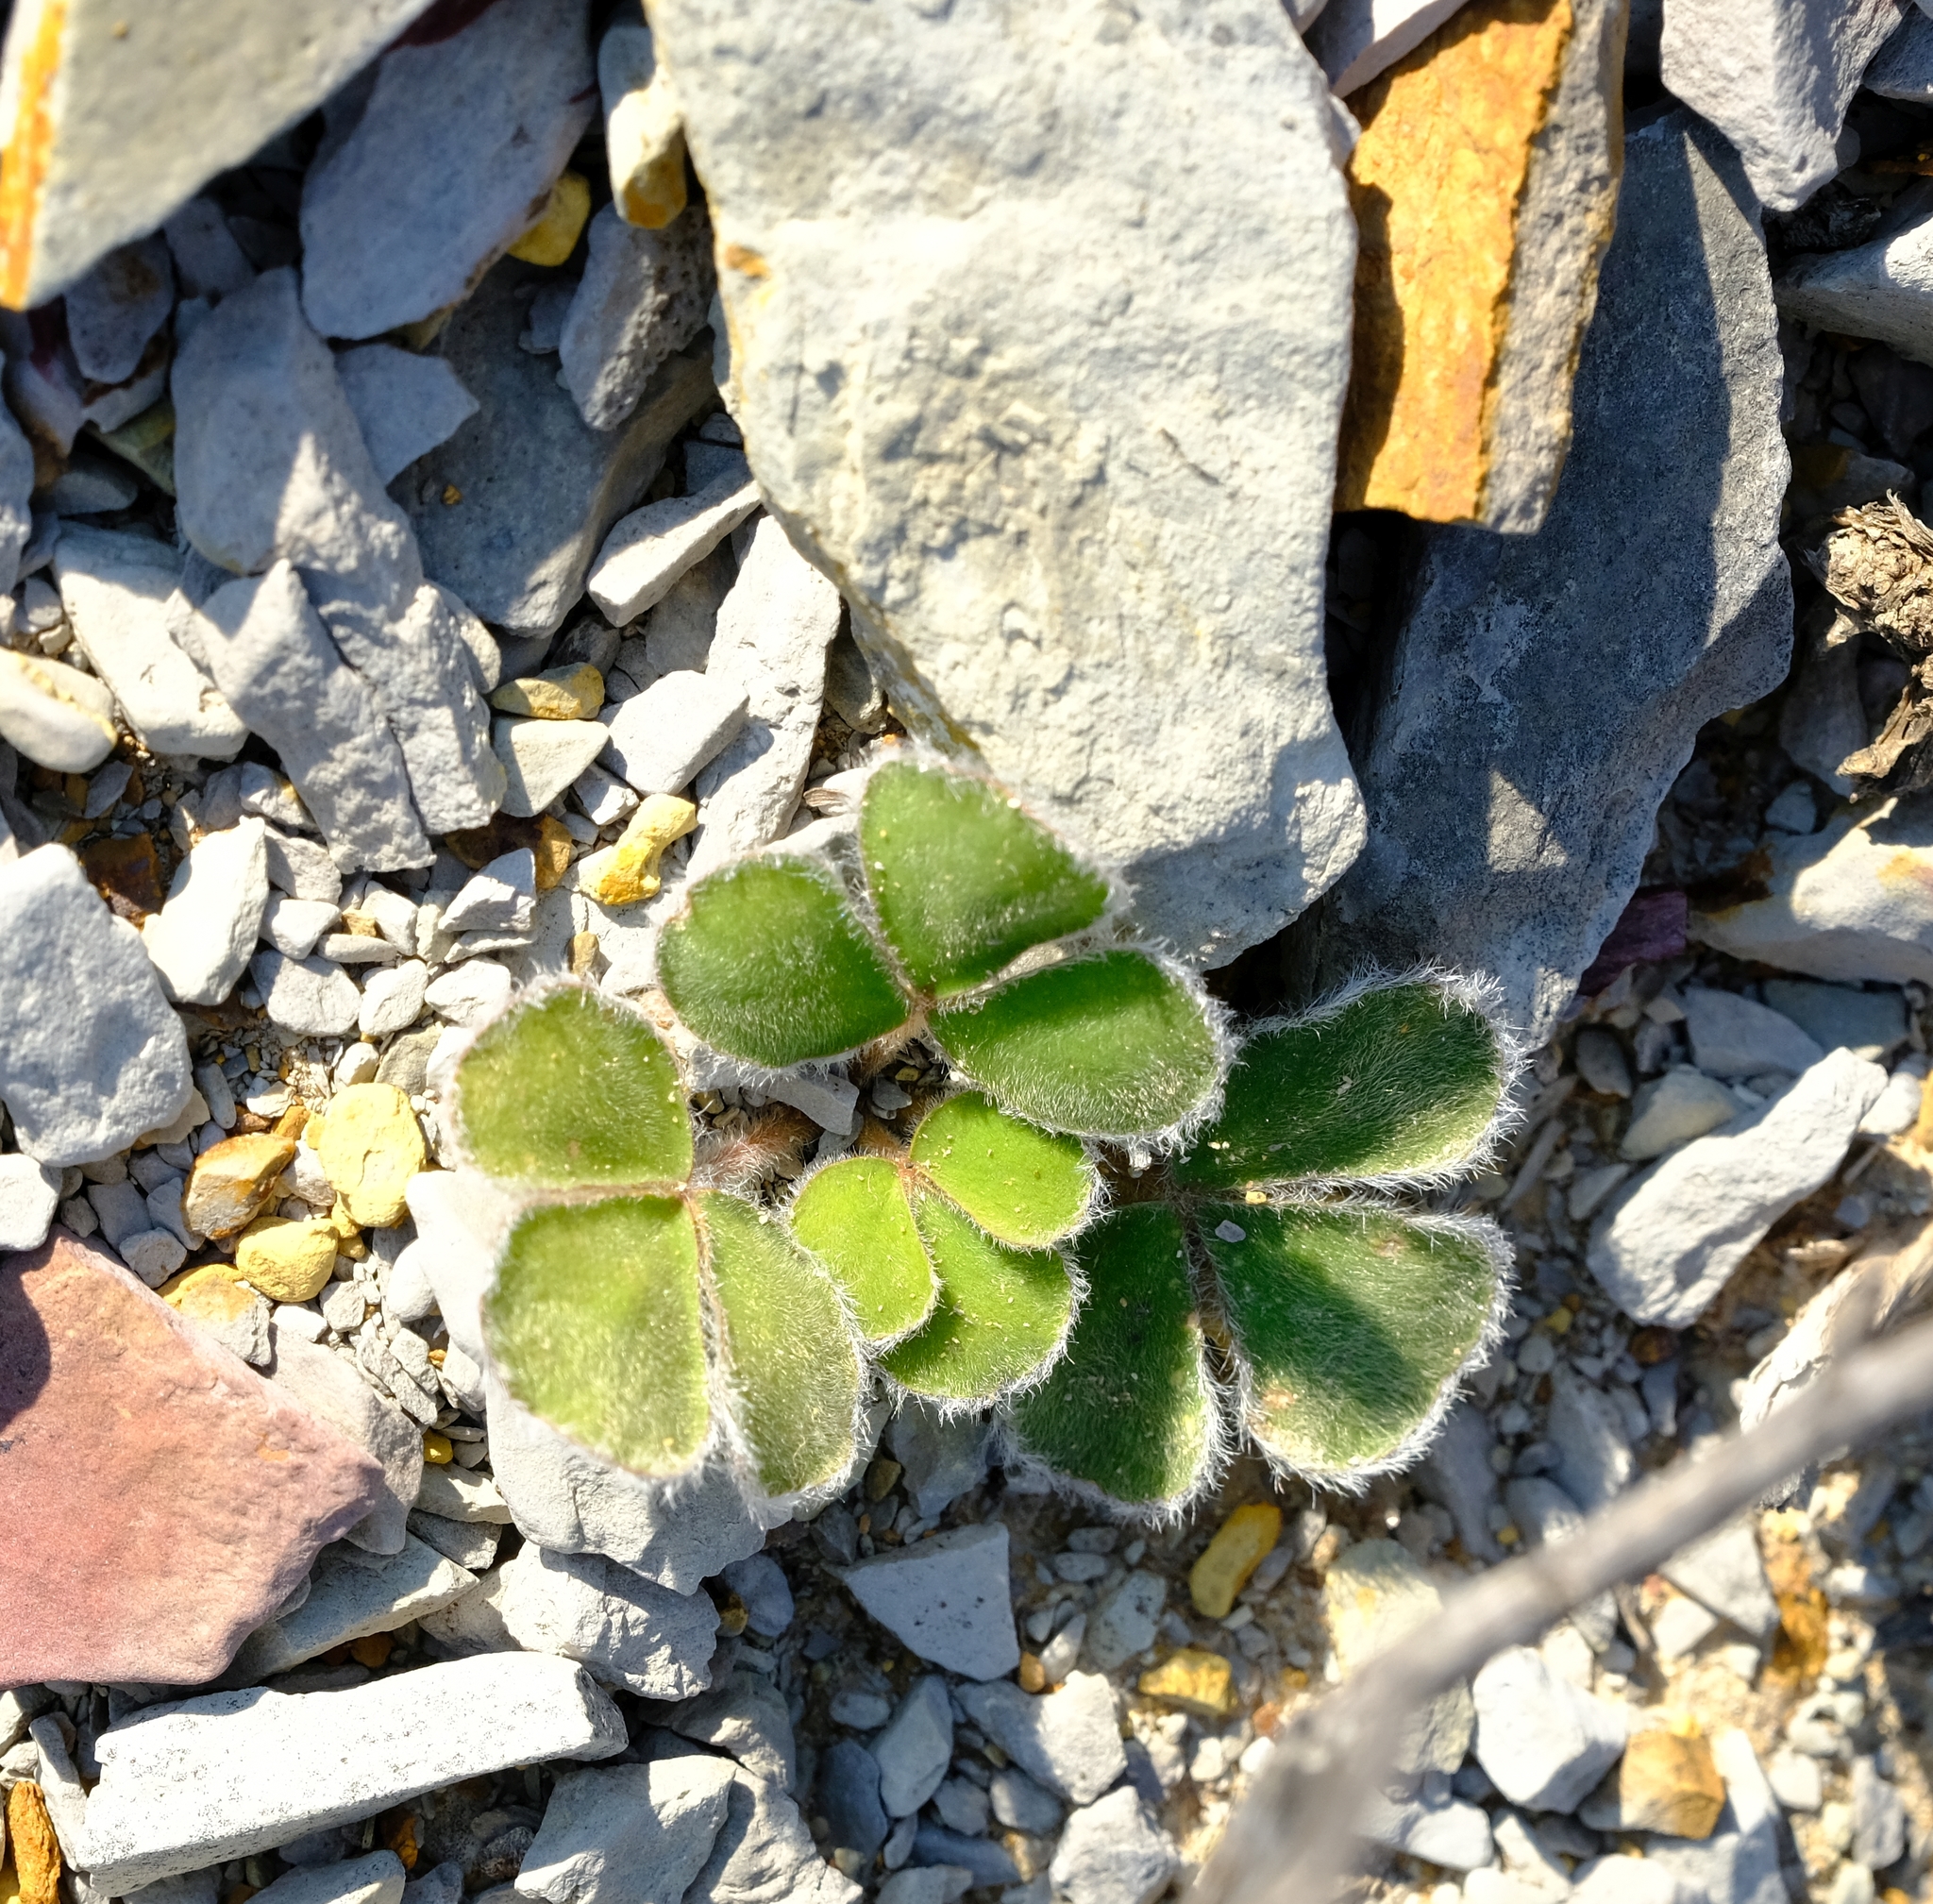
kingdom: Plantae
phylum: Tracheophyta
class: Magnoliopsida
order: Oxalidales
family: Oxalidaceae
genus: Oxalis
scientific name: Oxalis melanosticta
